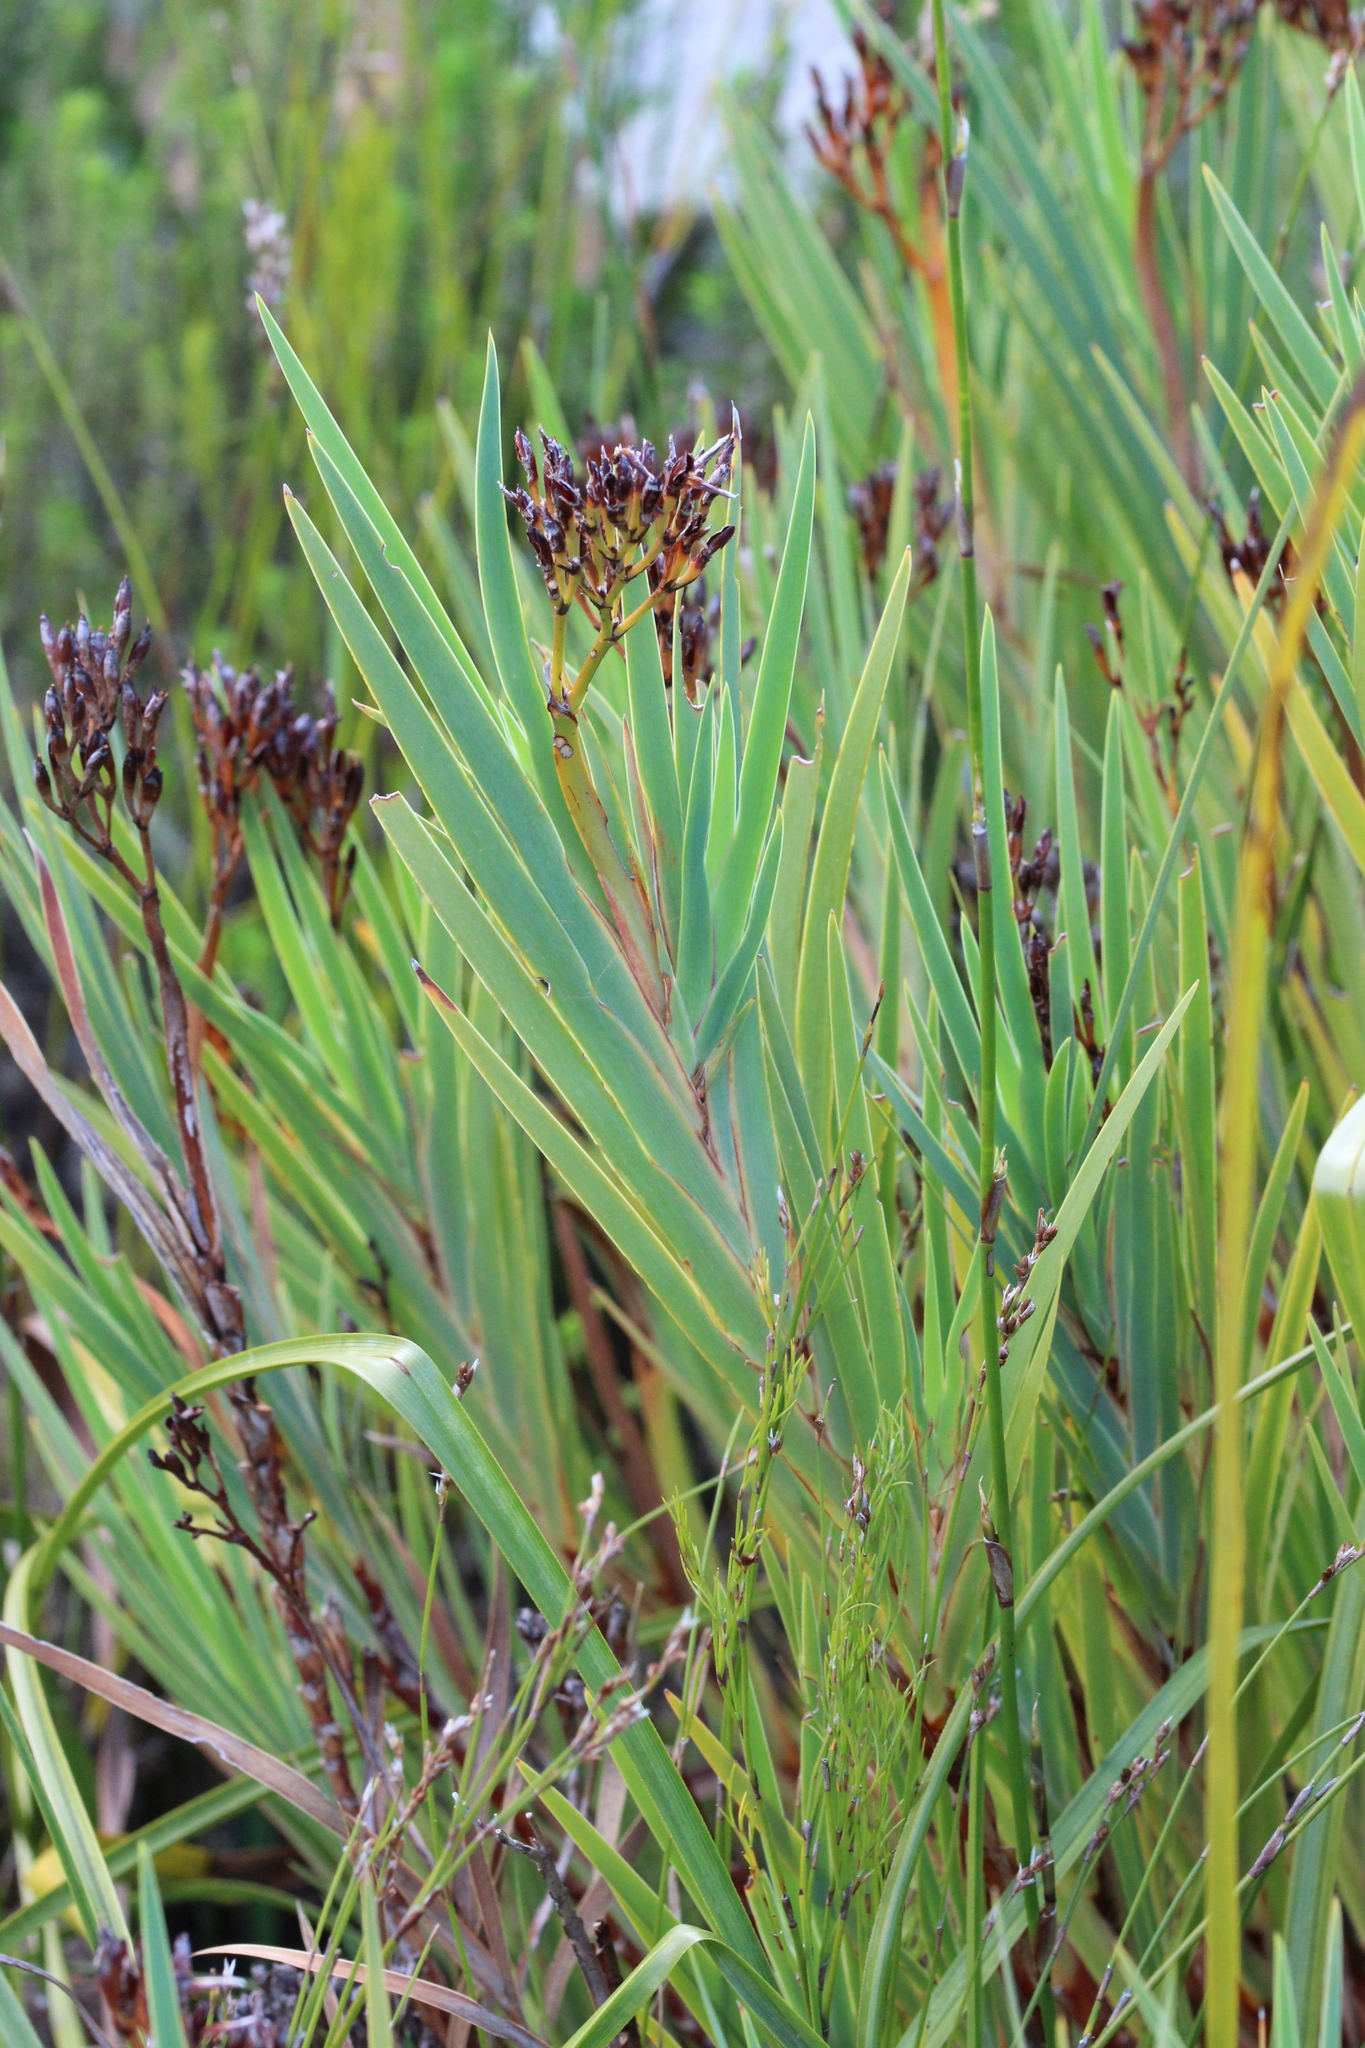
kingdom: Plantae
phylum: Tracheophyta
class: Liliopsida
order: Asparagales
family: Iridaceae
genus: Nivenia
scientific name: Nivenia stokoei
